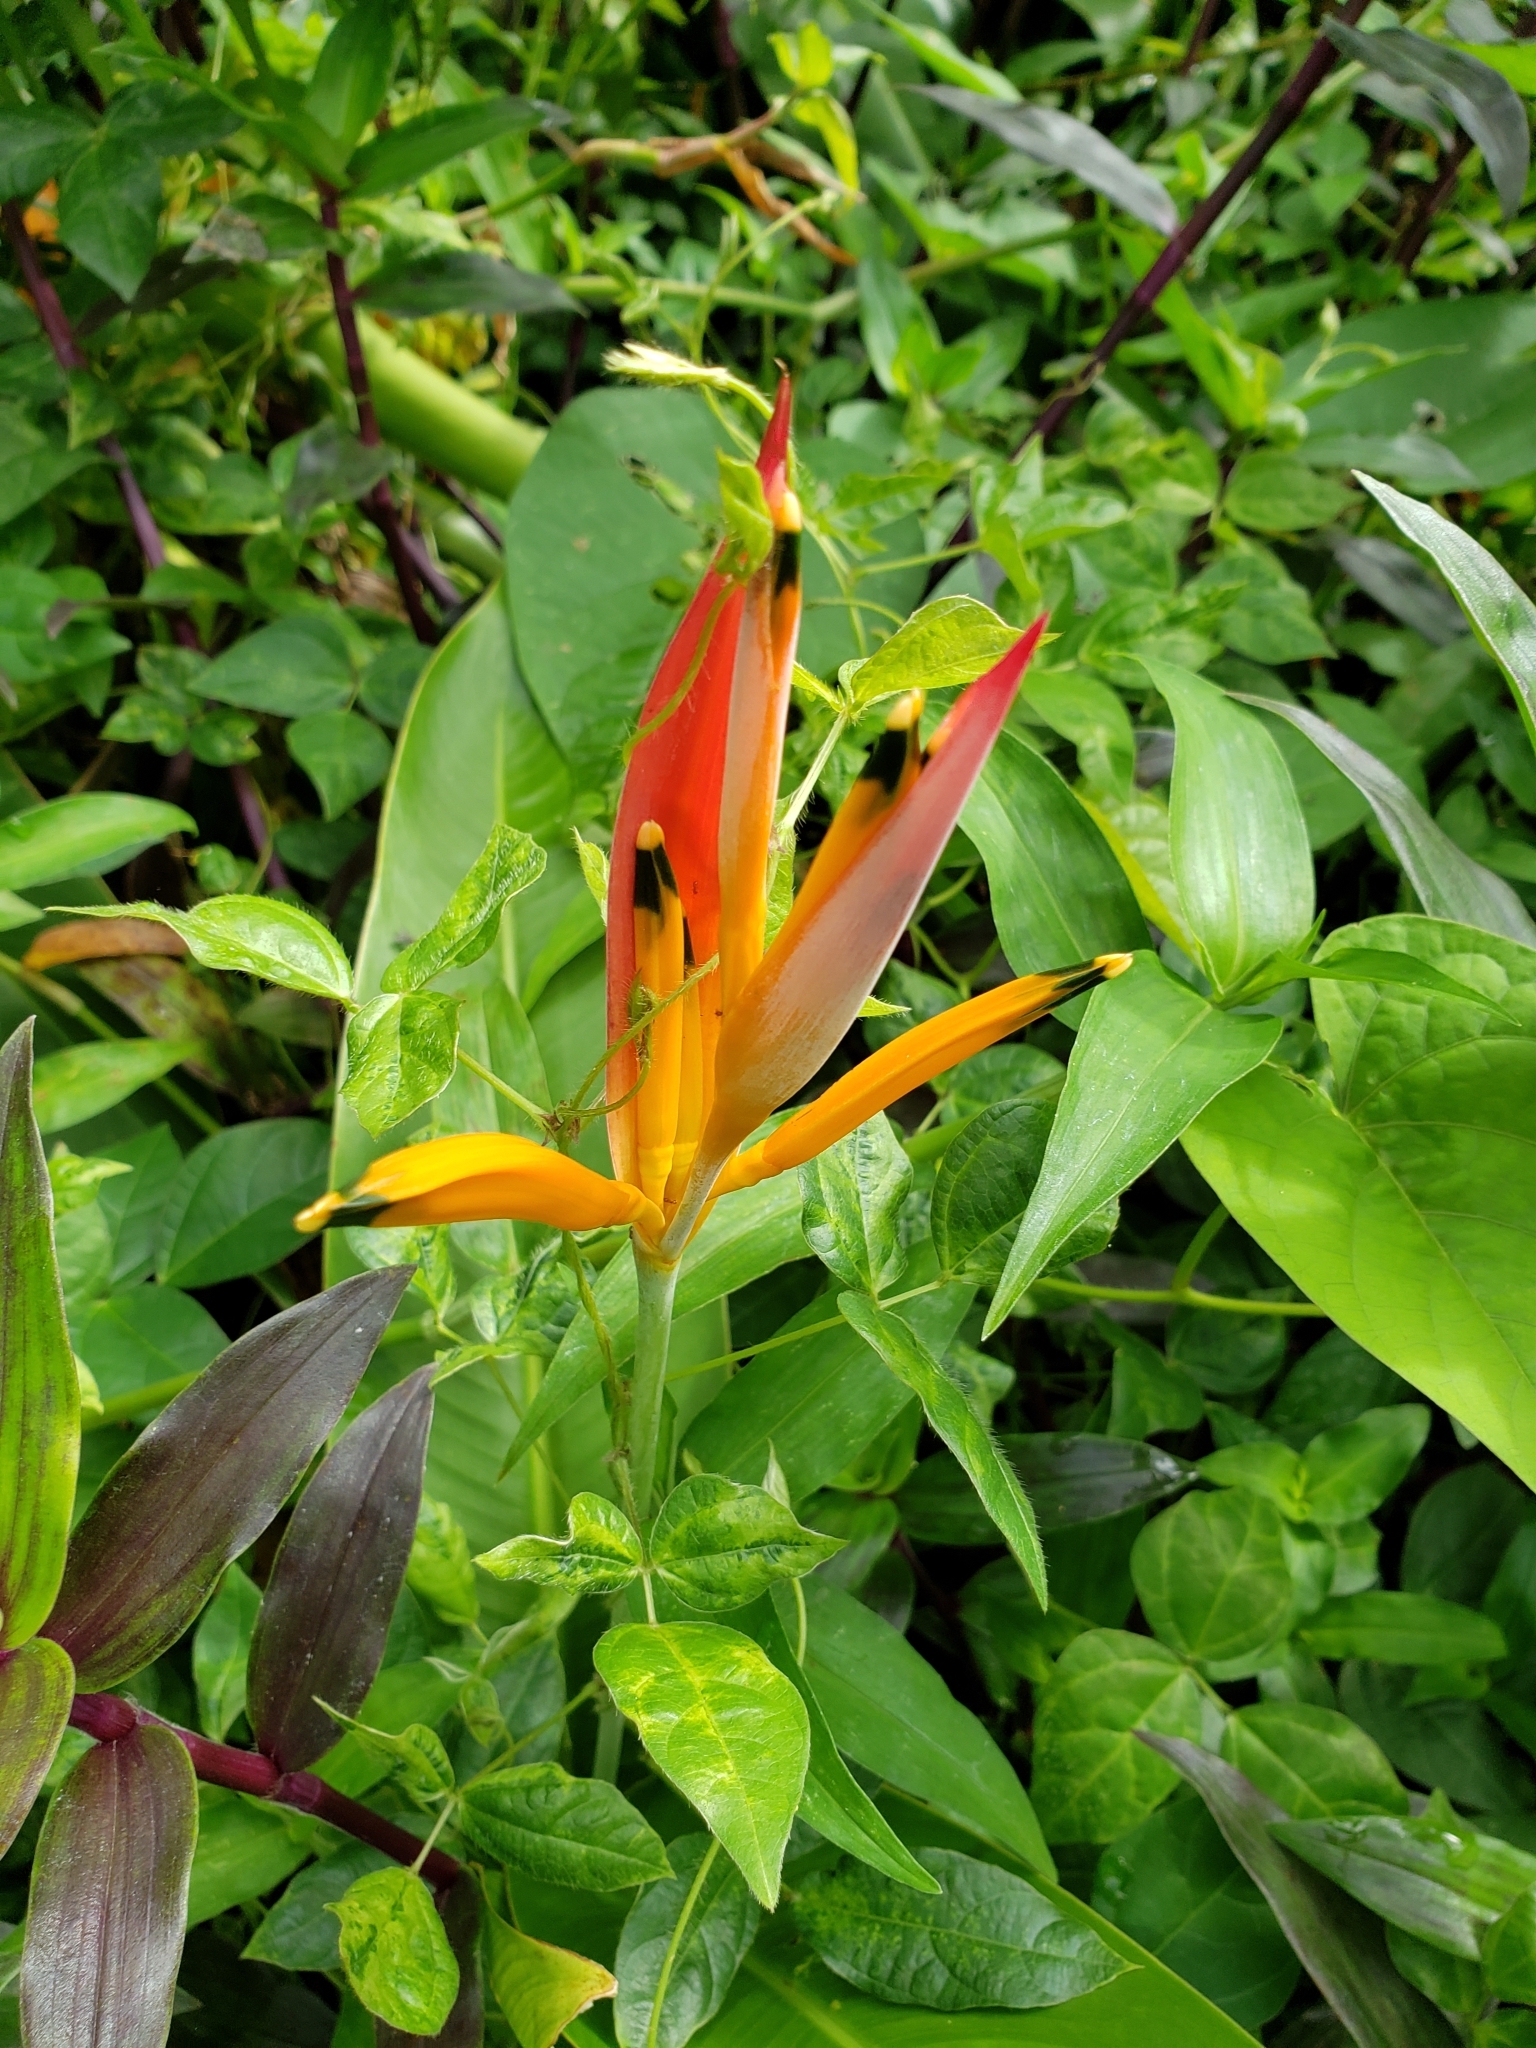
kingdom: Plantae
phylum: Tracheophyta
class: Liliopsida
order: Zingiberales
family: Heliconiaceae
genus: Heliconia
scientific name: Heliconia psittacorum
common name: Parrot's-flower
